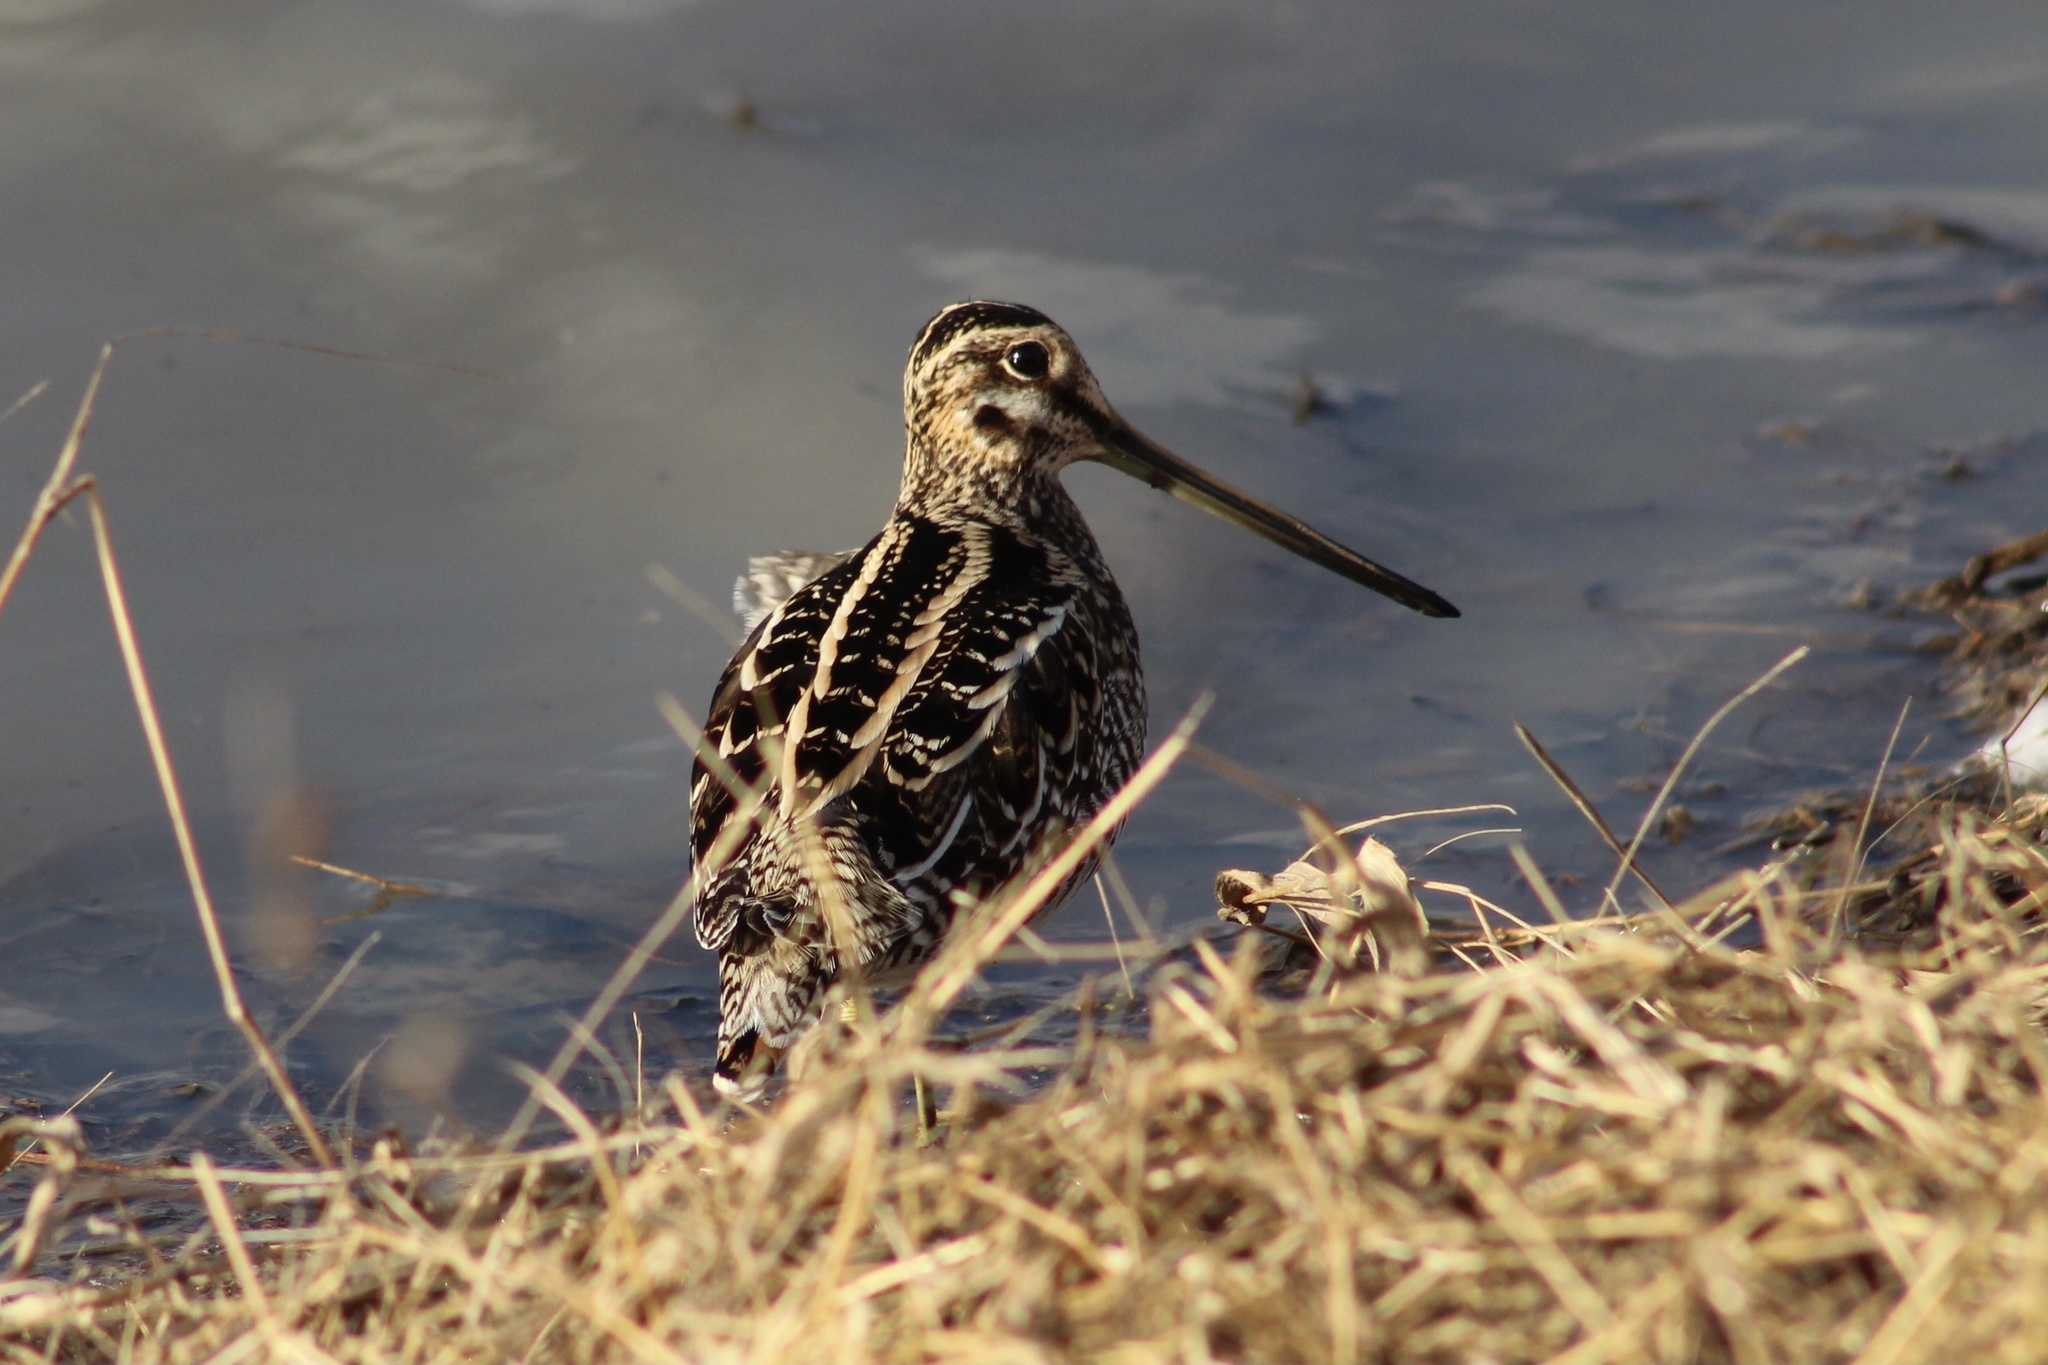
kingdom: Animalia
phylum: Chordata
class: Aves
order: Charadriiformes
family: Scolopacidae
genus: Gallinago
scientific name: Gallinago delicata
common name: Wilson's snipe
